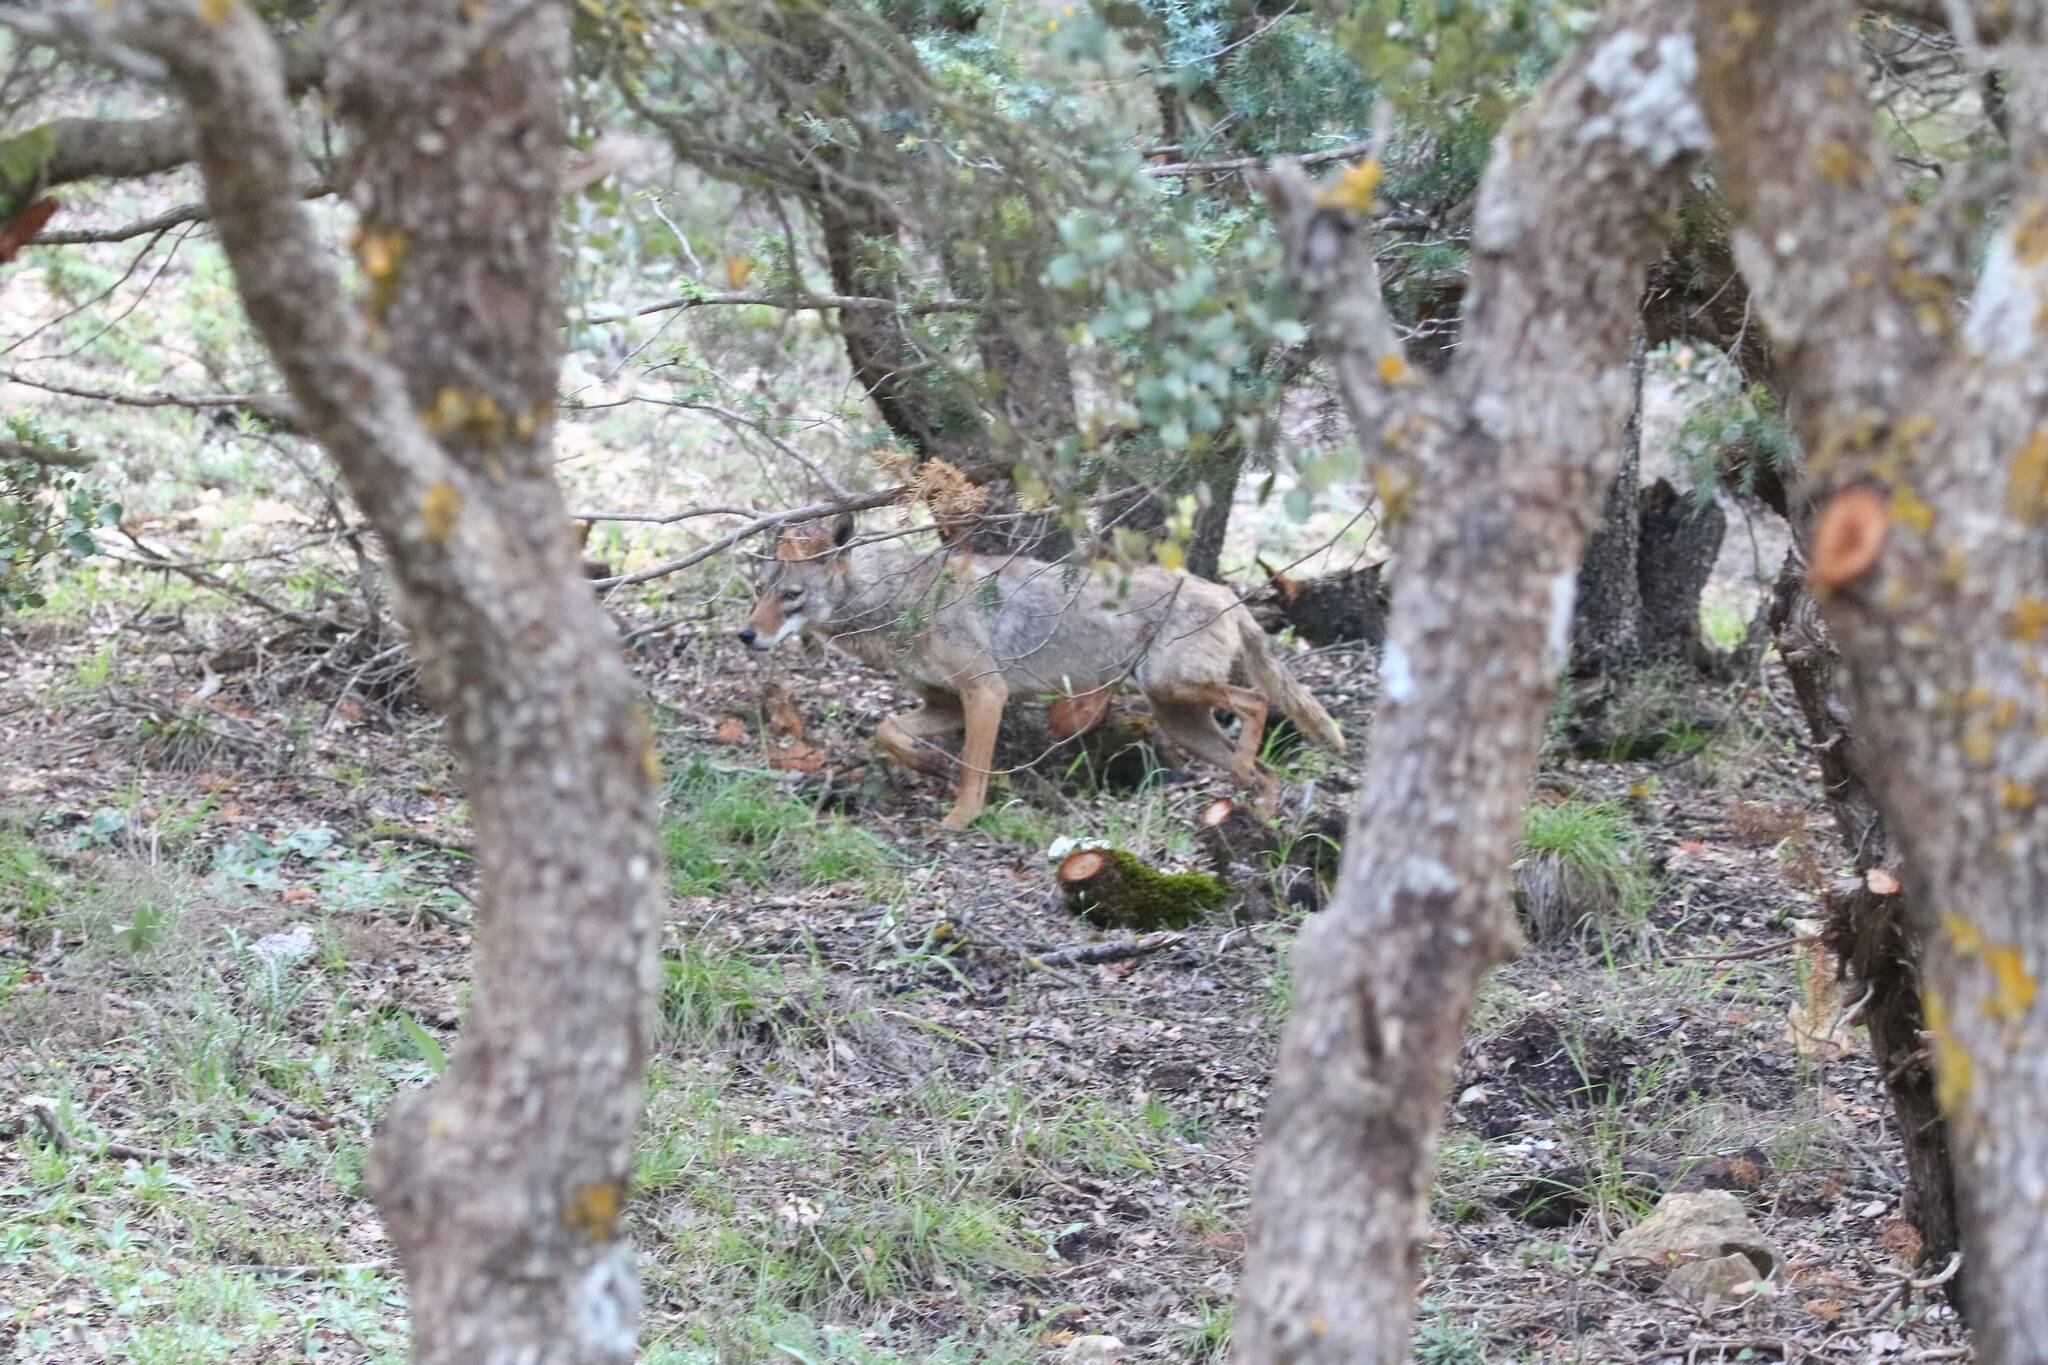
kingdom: Animalia
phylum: Chordata
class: Mammalia
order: Carnivora
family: Canidae
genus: Canis
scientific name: Canis lupaster
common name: African golden wolf
